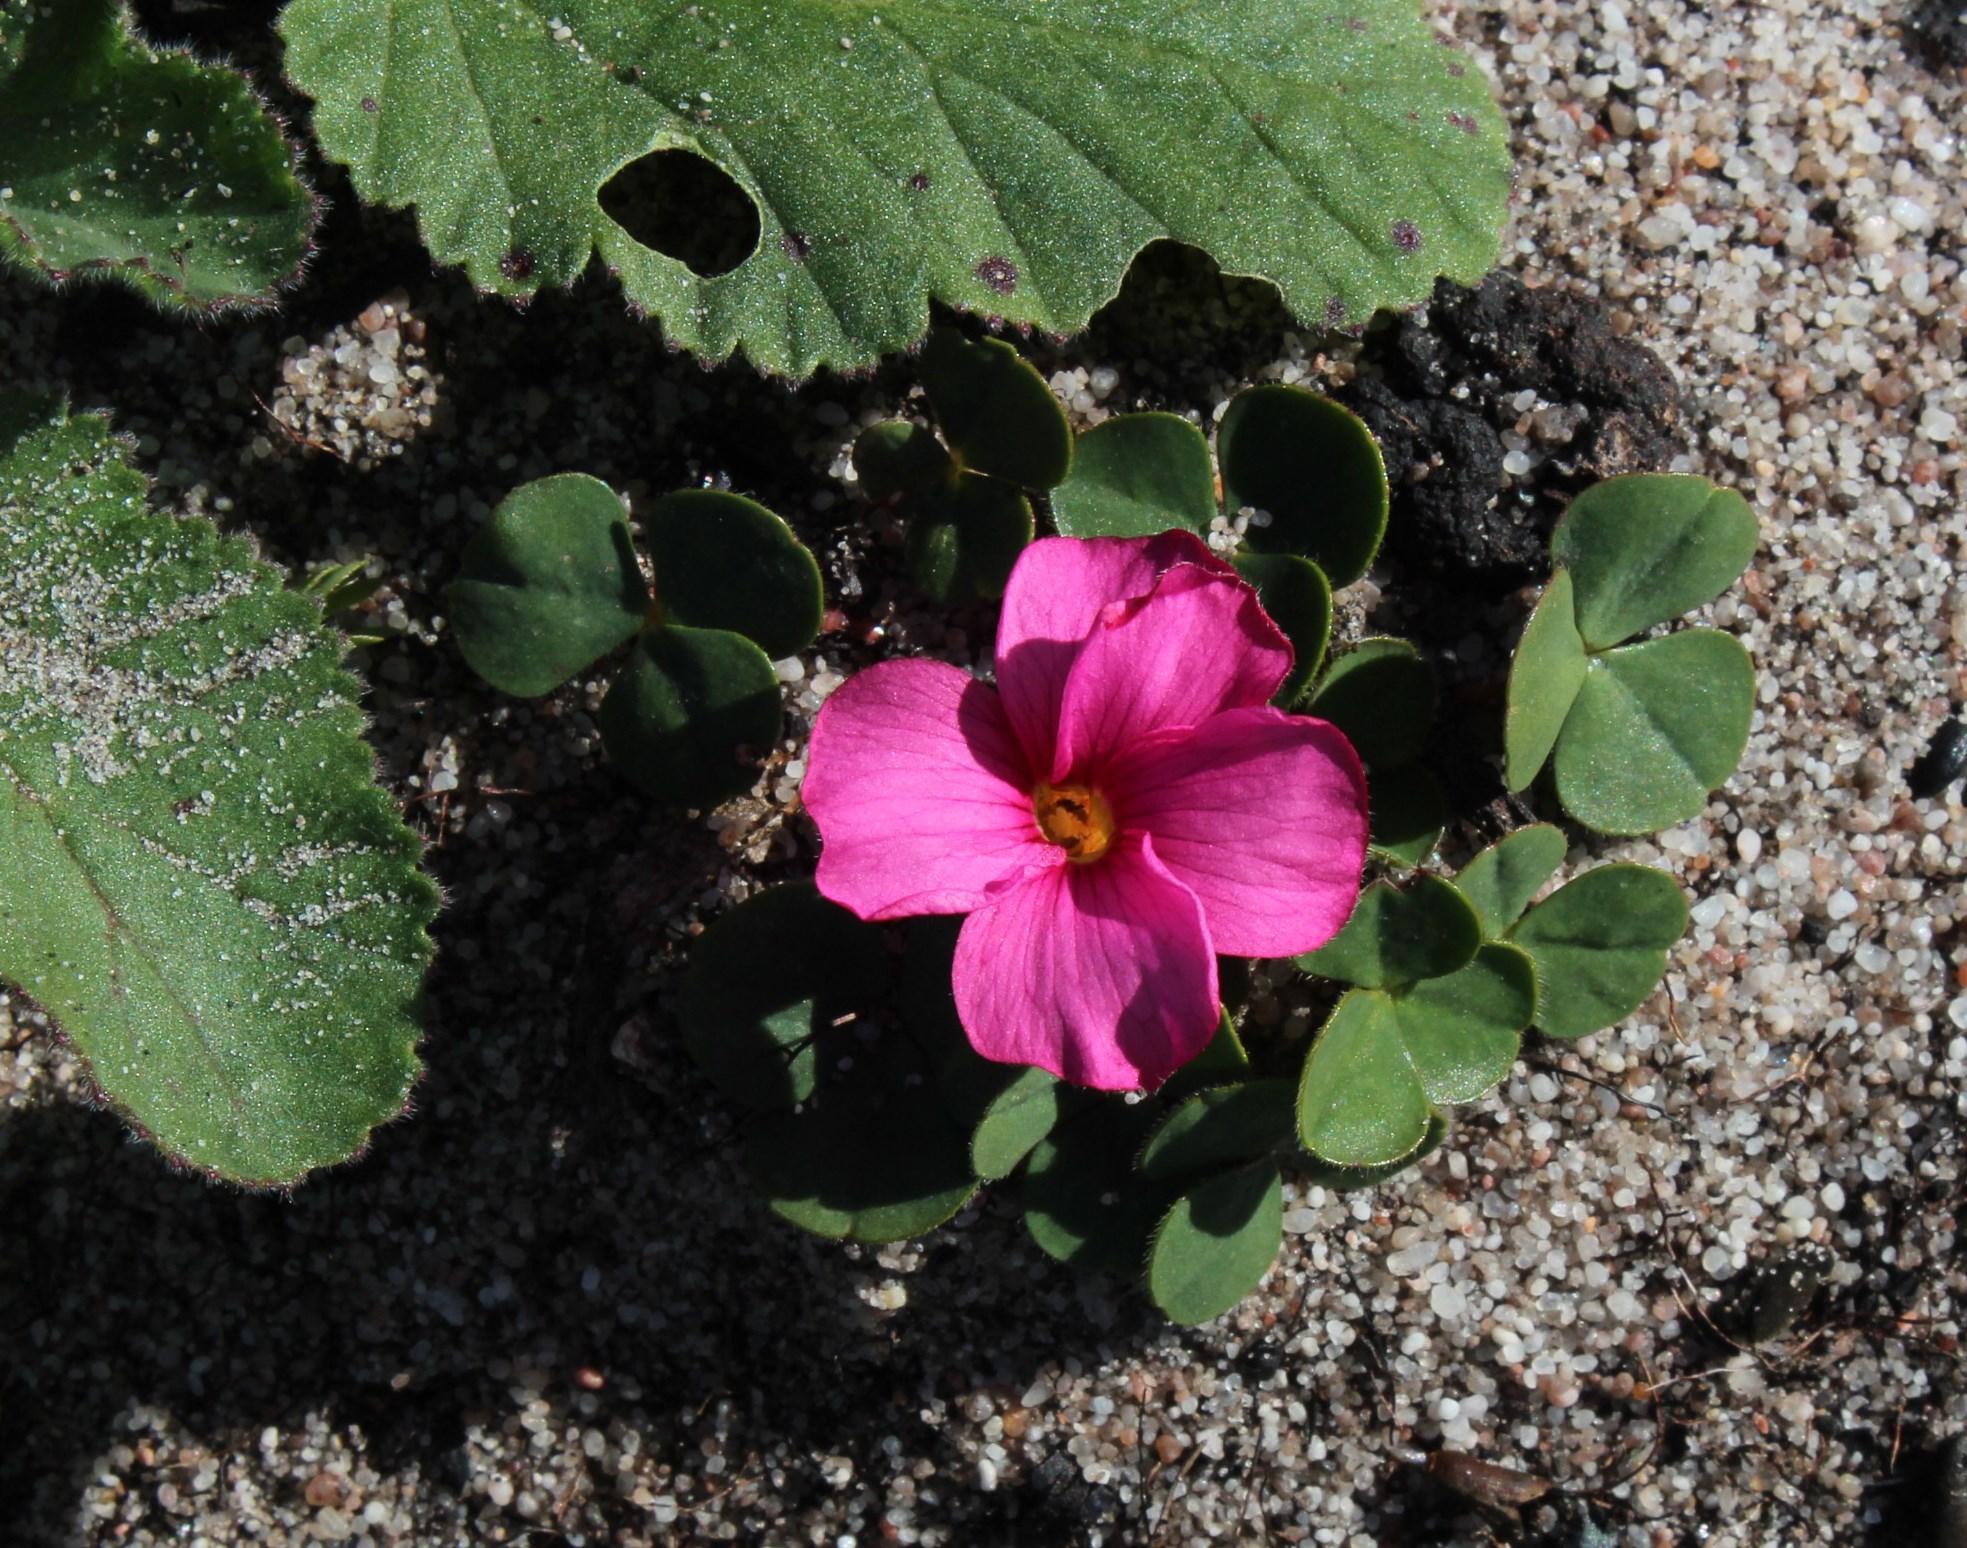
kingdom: Plantae
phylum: Tracheophyta
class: Magnoliopsida
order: Oxalidales
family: Oxalidaceae
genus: Oxalis
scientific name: Oxalis eckloniana
